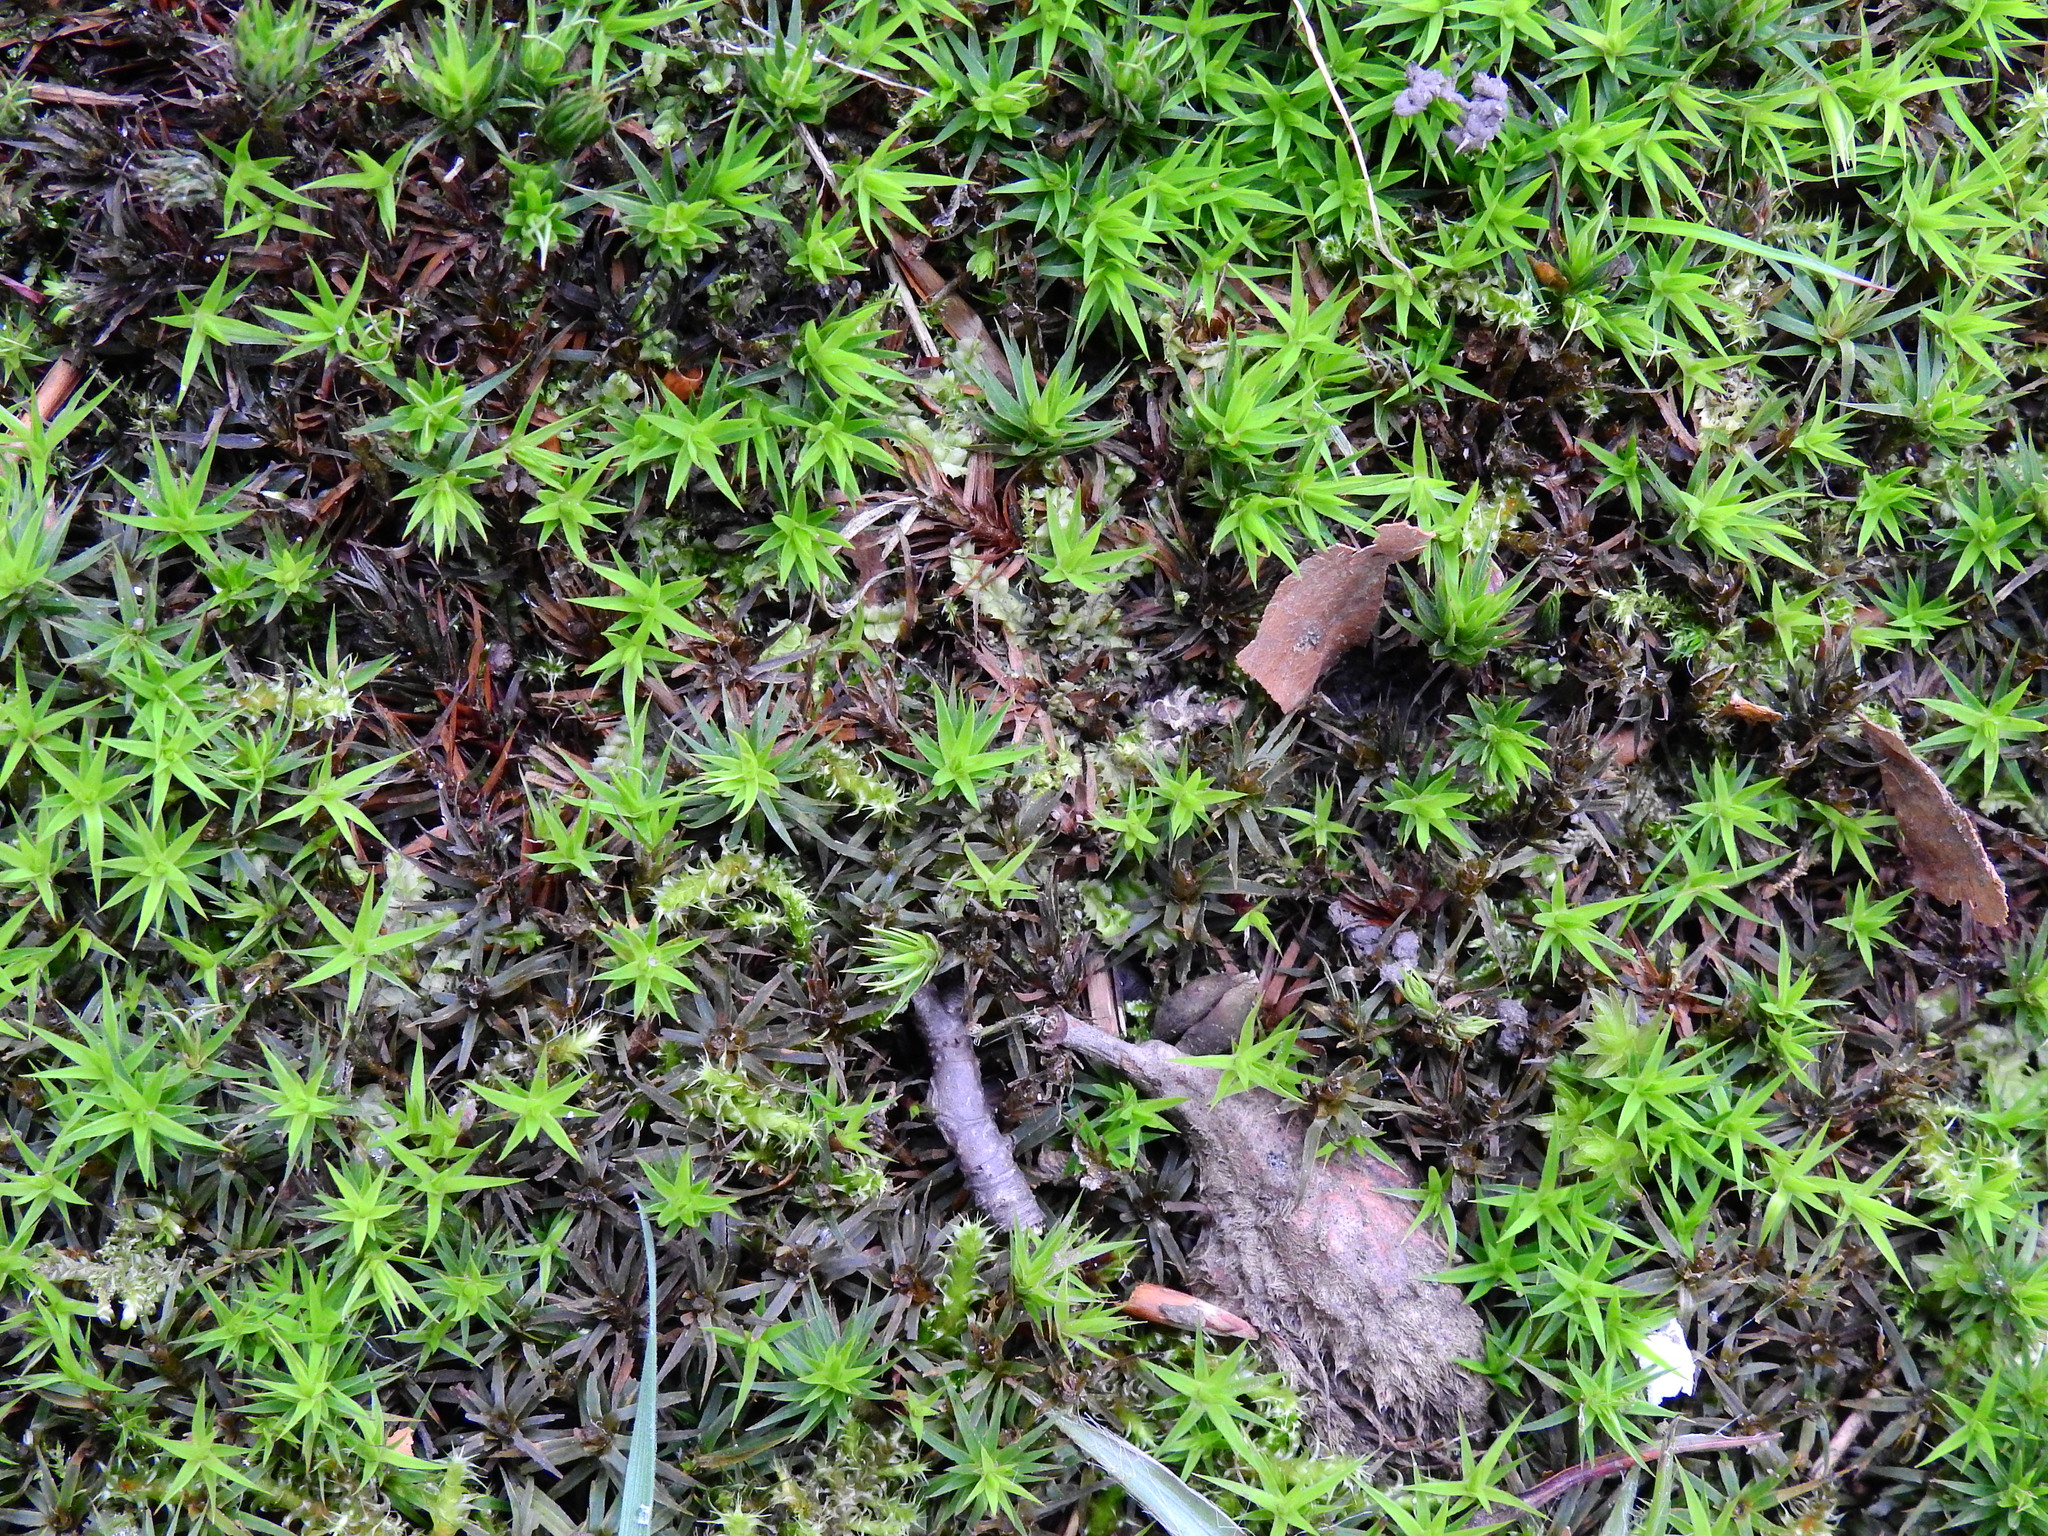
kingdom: Plantae
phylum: Bryophyta
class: Polytrichopsida
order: Polytrichales
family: Polytrichaceae
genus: Polytrichum
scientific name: Polytrichum formosum
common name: Bank haircap moss
